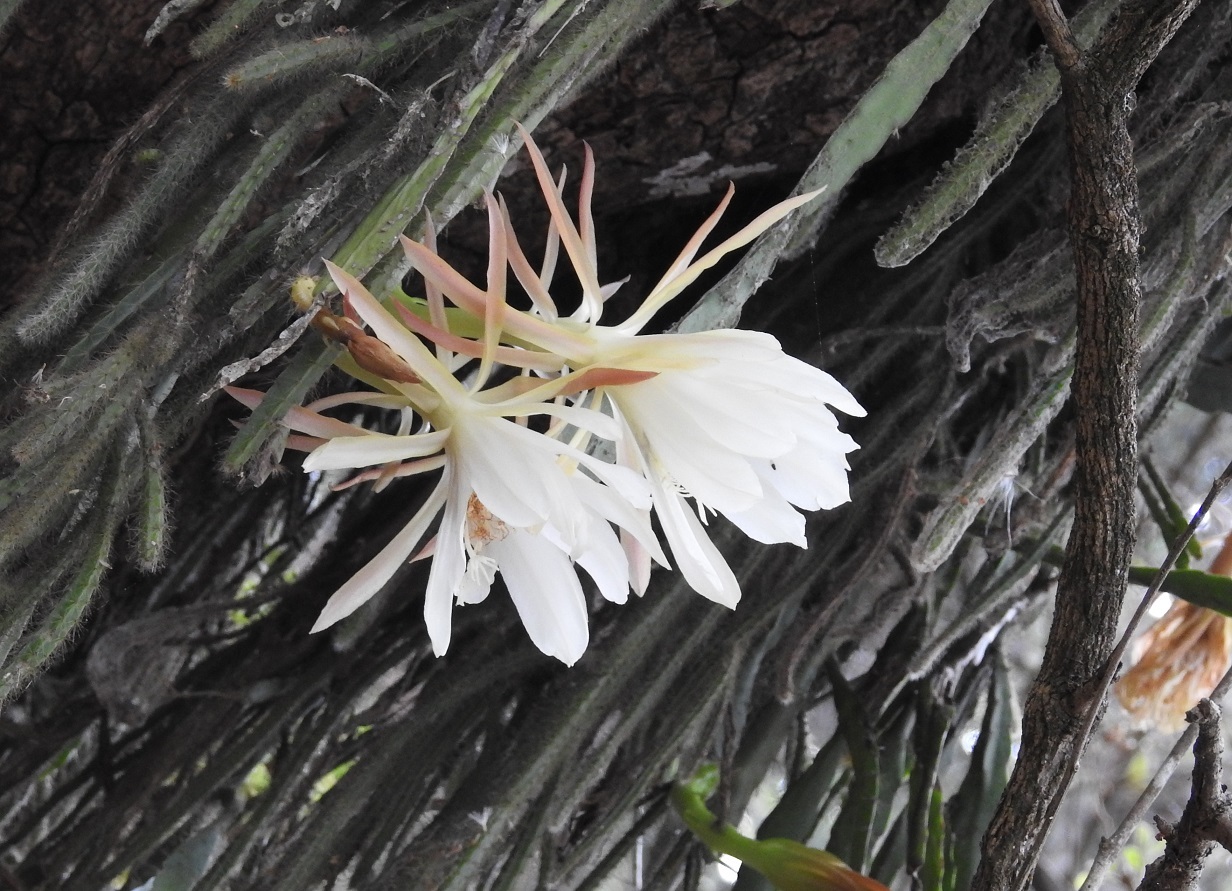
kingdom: Plantae
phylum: Tracheophyta
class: Magnoliopsida
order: Caryophyllales
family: Cactaceae
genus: Disocactus
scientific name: Disocactus crenatus
